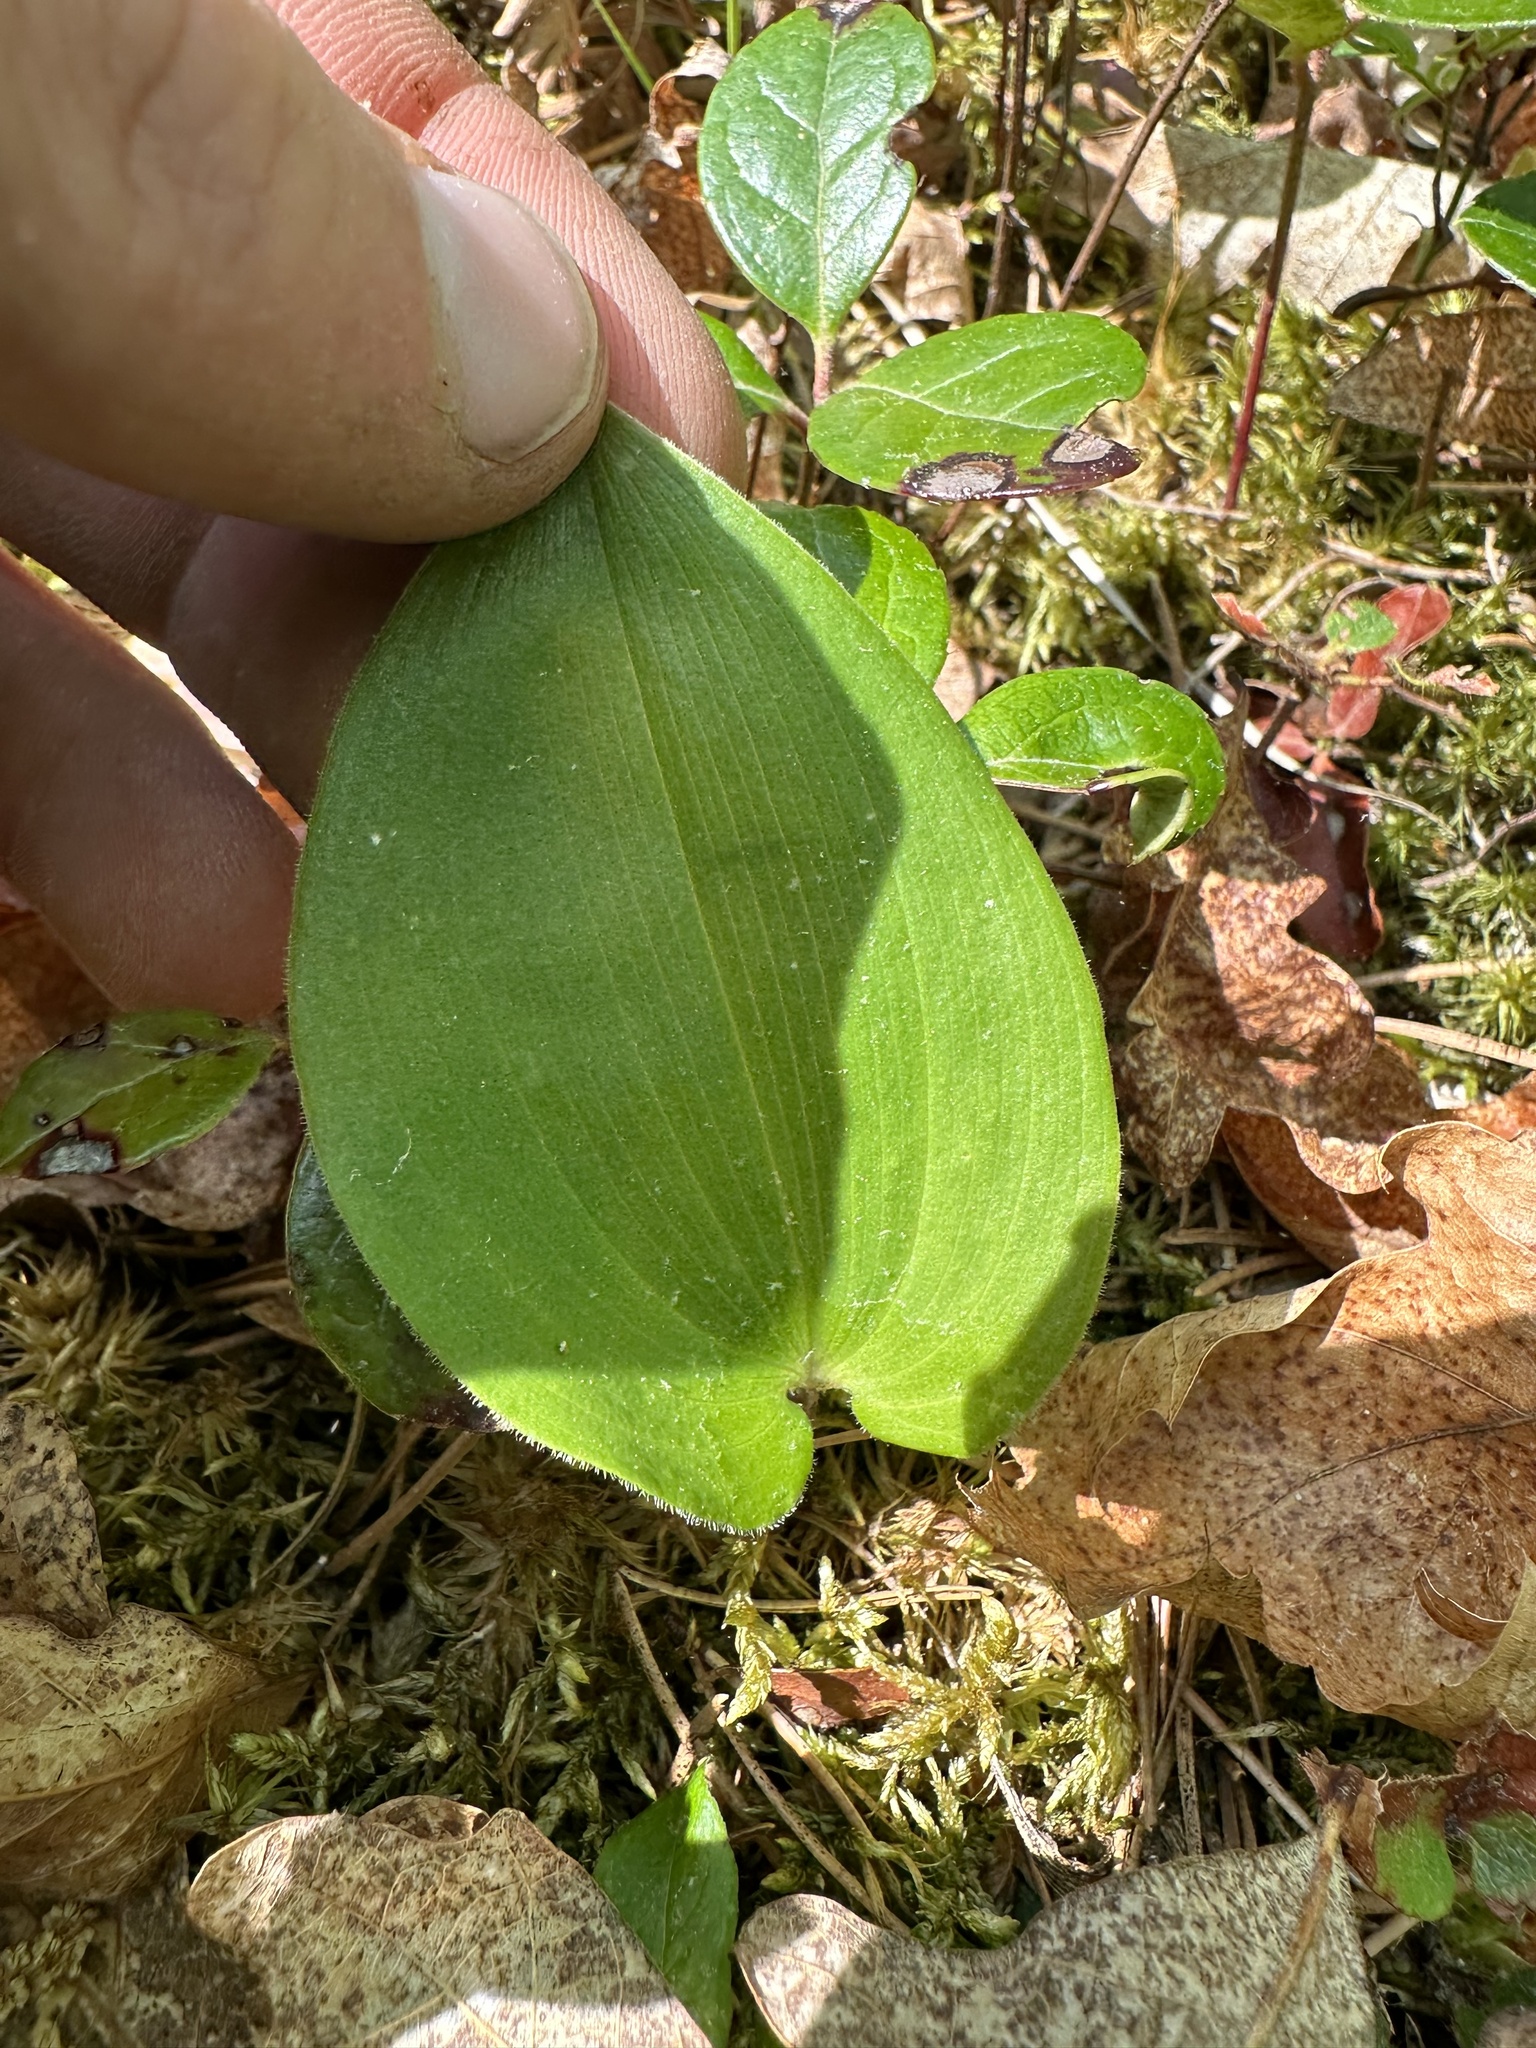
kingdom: Plantae
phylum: Tracheophyta
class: Liliopsida
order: Asparagales
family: Asparagaceae
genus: Maianthemum
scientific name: Maianthemum canadense
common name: False lily-of-the-valley
